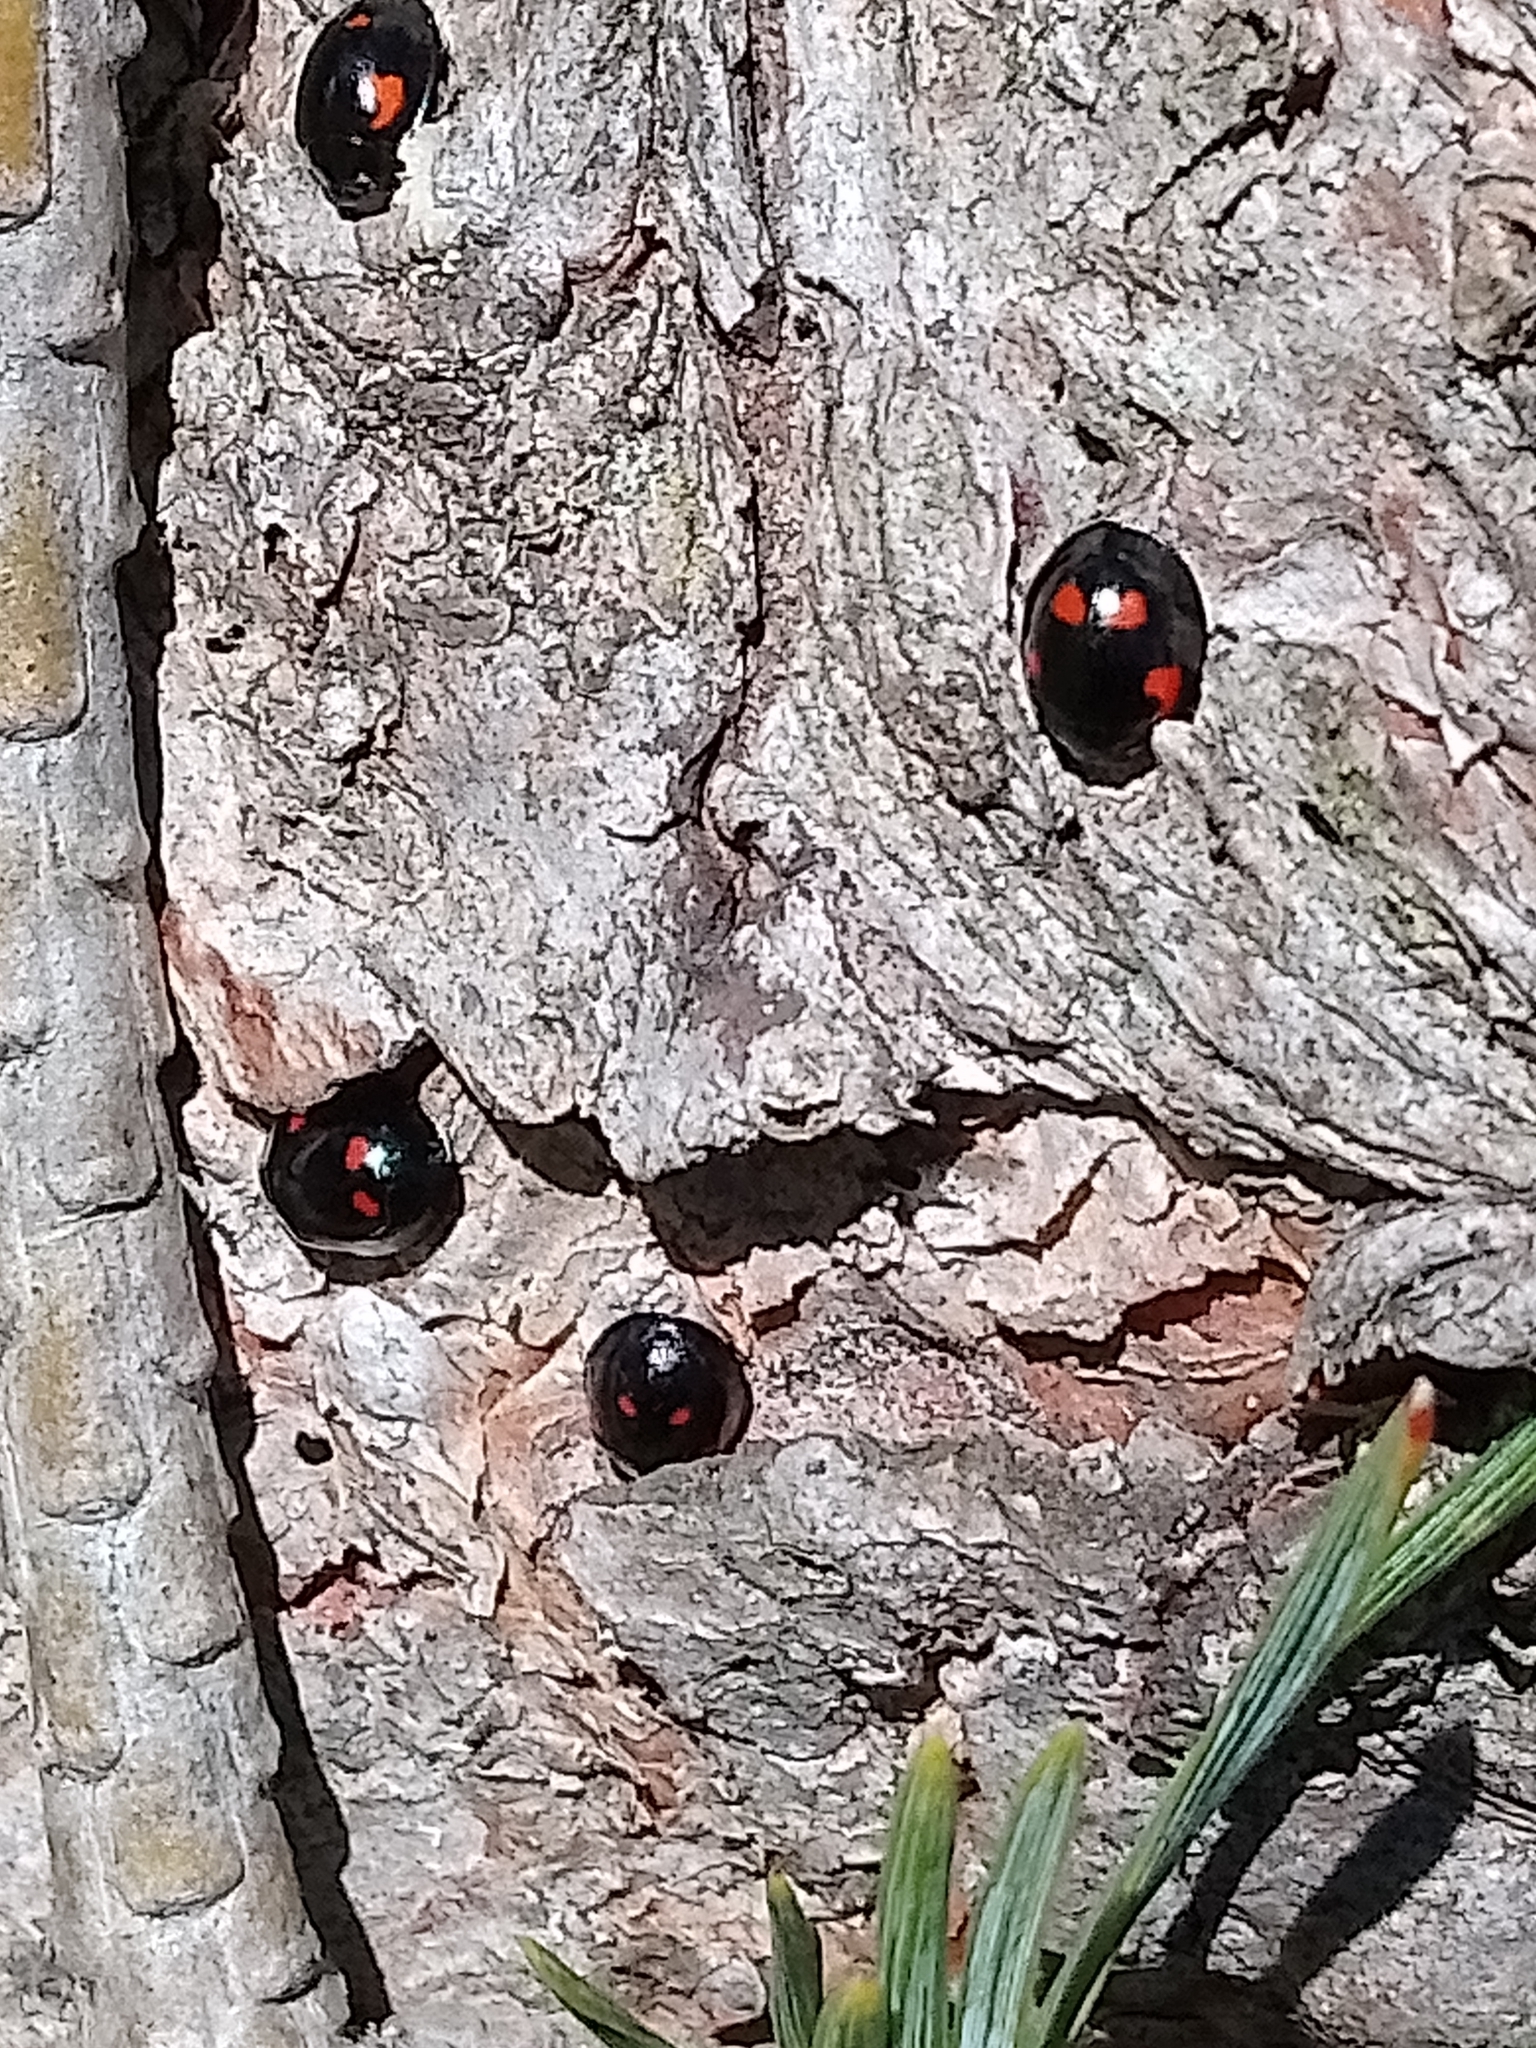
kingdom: Animalia
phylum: Arthropoda
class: Insecta
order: Coleoptera
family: Coccinellidae
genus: Brumus
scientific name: Brumus quadripustulatus
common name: Ladybird beetle
